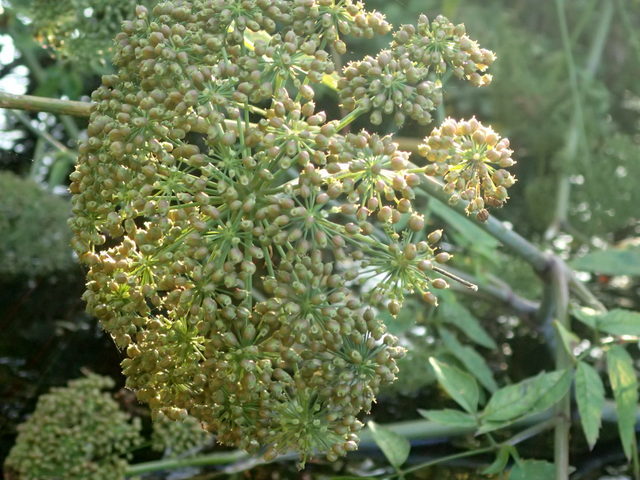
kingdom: Plantae
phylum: Tracheophyta
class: Magnoliopsida
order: Apiales
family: Apiaceae
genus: Cicuta
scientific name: Cicuta maculata
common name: Spotted cowbane
